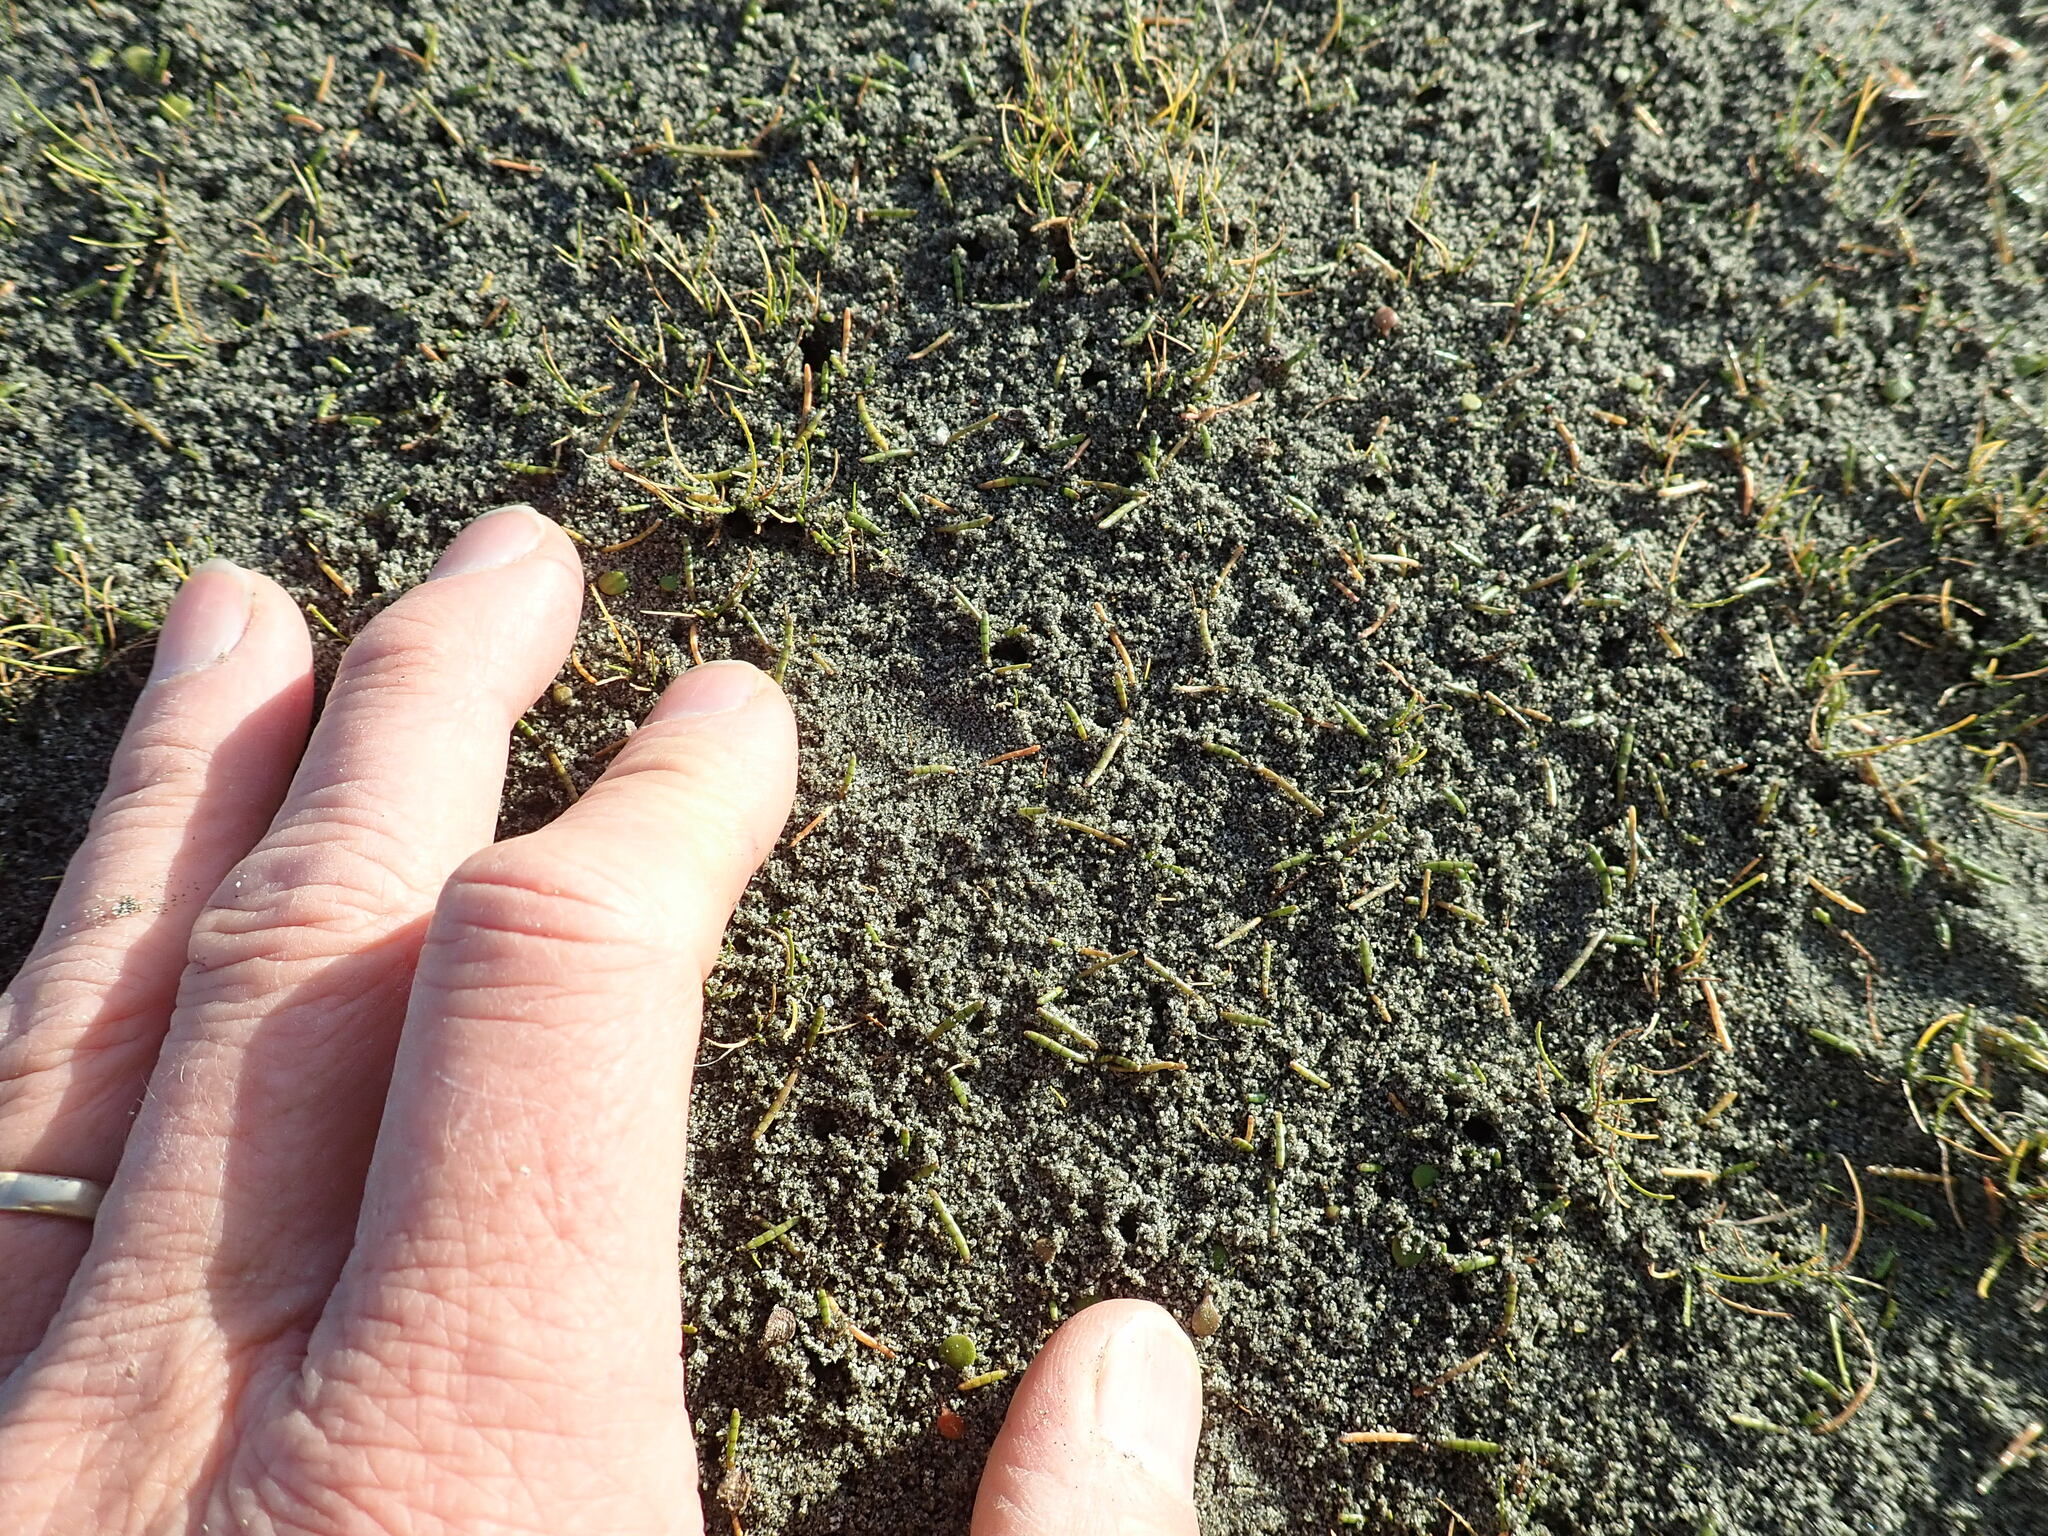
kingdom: Plantae
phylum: Tracheophyta
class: Magnoliopsida
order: Apiales
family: Apiaceae
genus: Lilaeopsis
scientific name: Lilaeopsis novae-zelandiae
